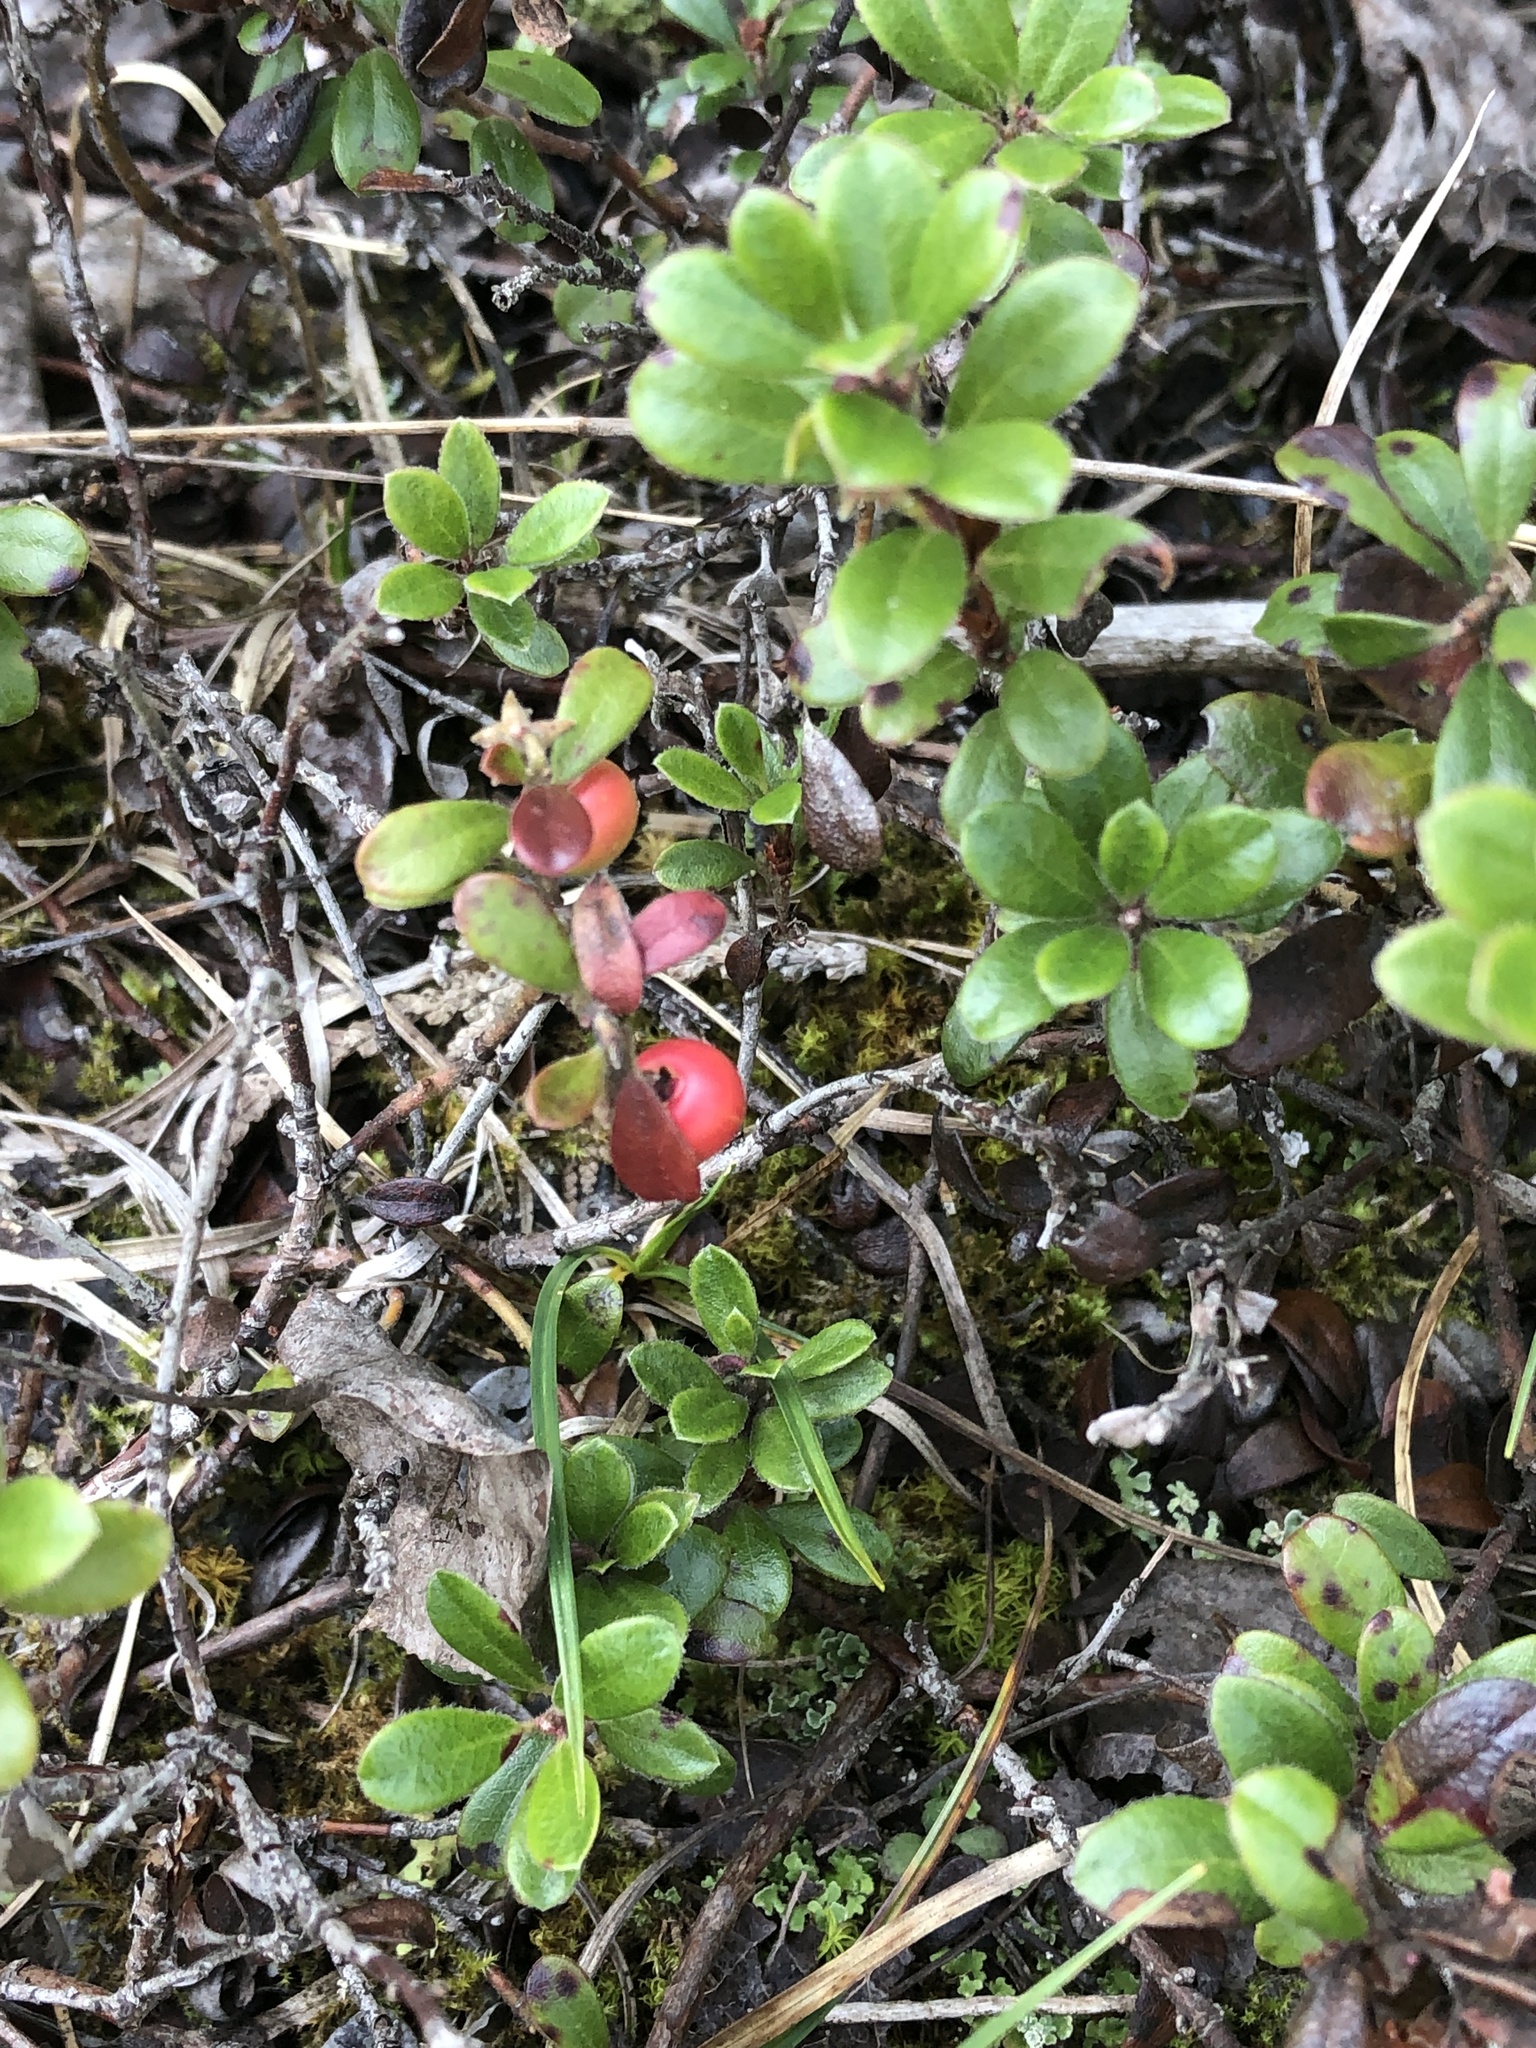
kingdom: Plantae
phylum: Tracheophyta
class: Magnoliopsida
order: Ericales
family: Ericaceae
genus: Arctostaphylos
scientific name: Arctostaphylos uva-ursi
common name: Bearberry
